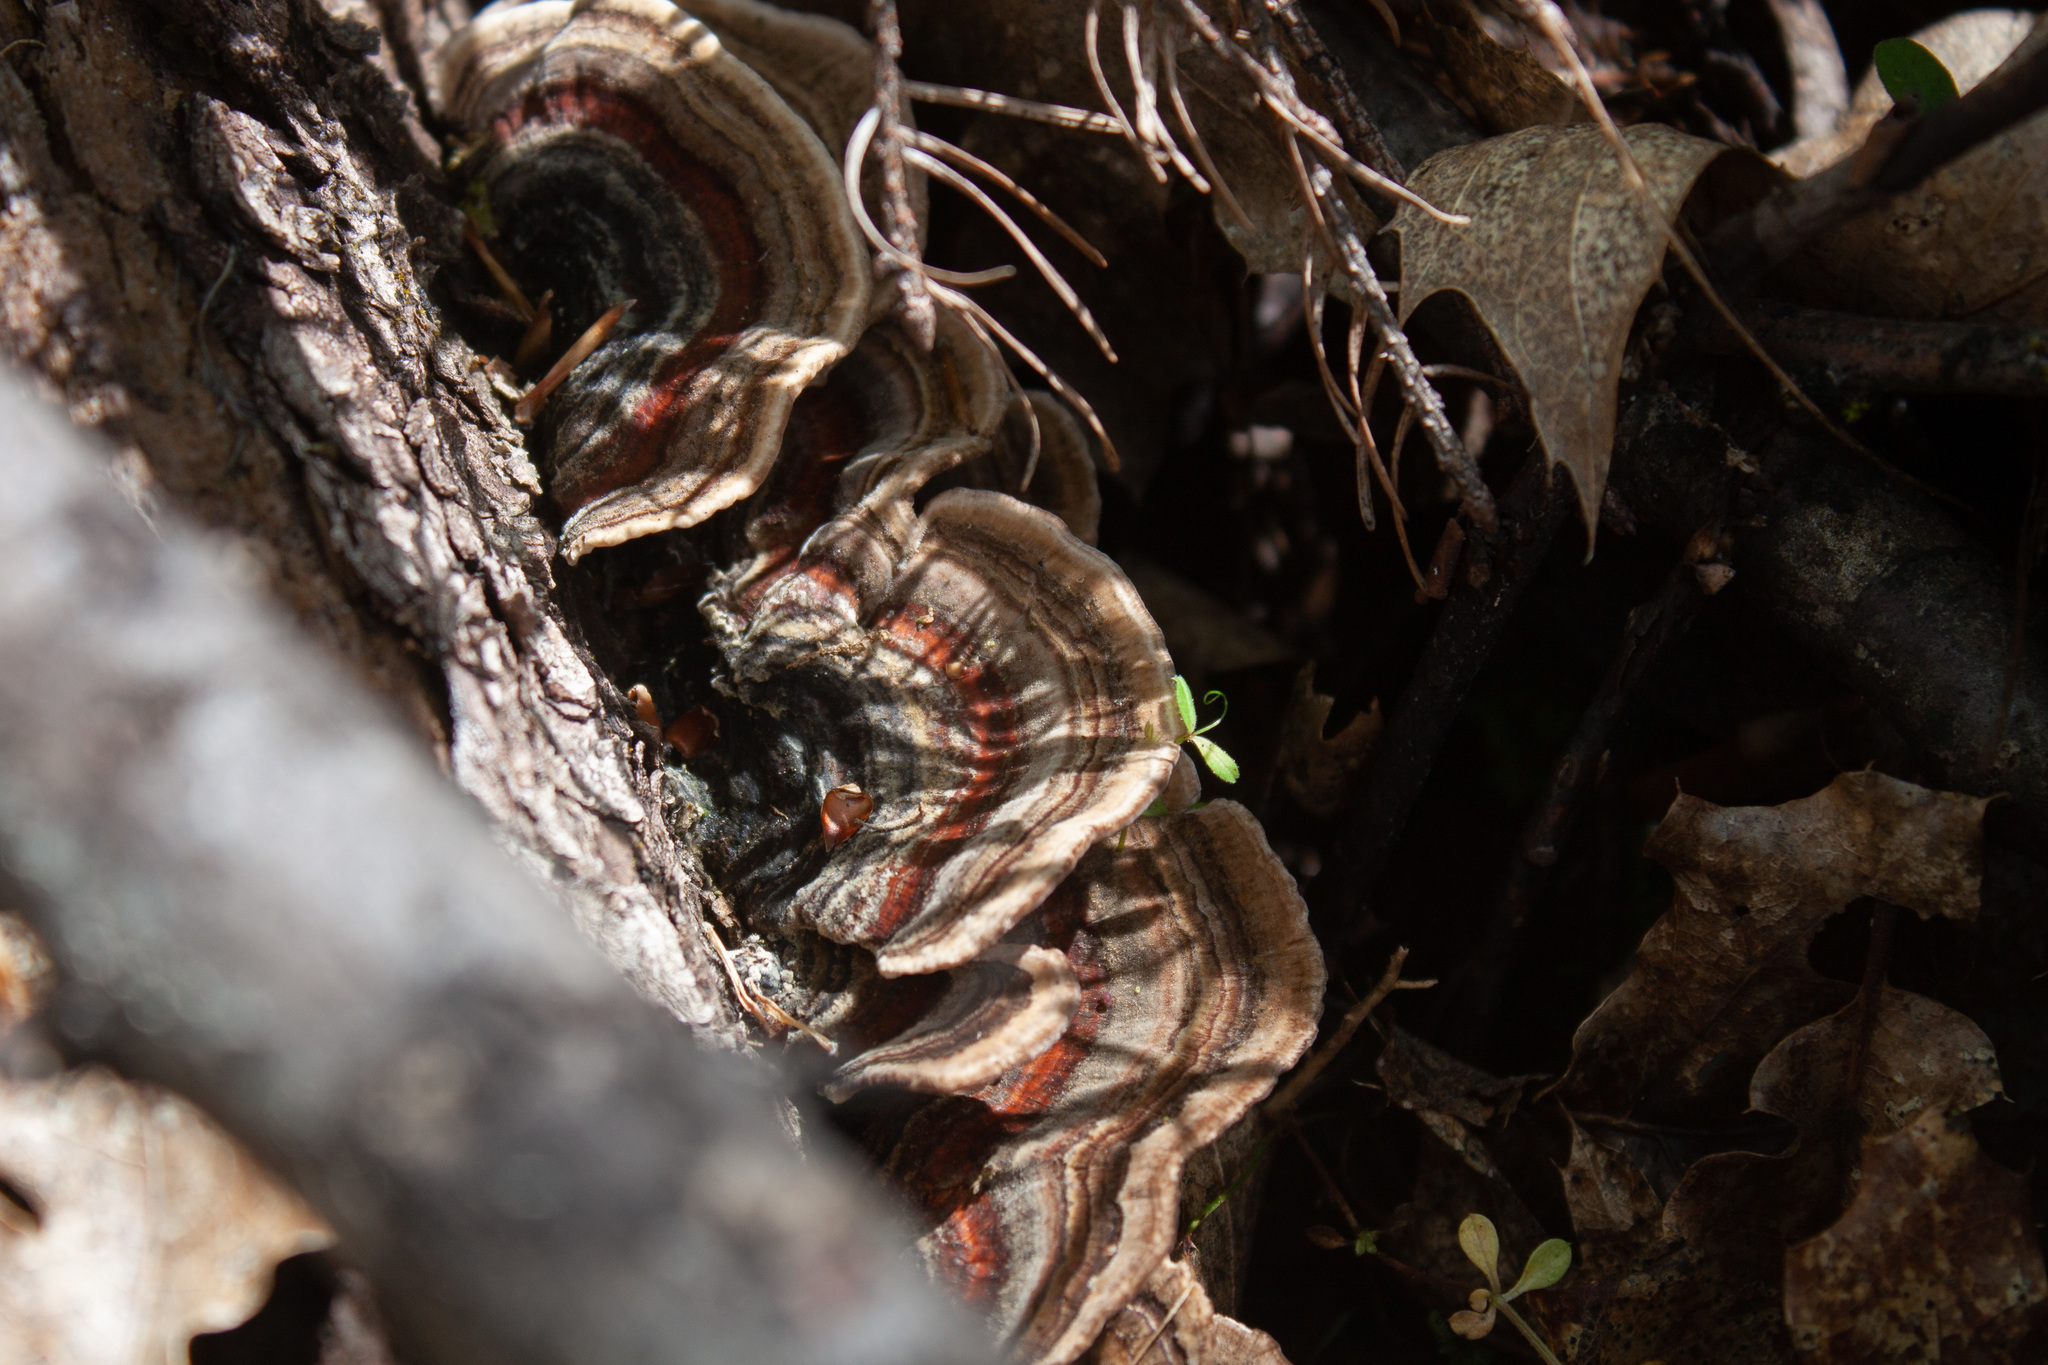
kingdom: Fungi
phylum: Basidiomycota
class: Agaricomycetes
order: Polyporales
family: Polyporaceae
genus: Trametes
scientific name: Trametes versicolor
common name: Turkeytail
